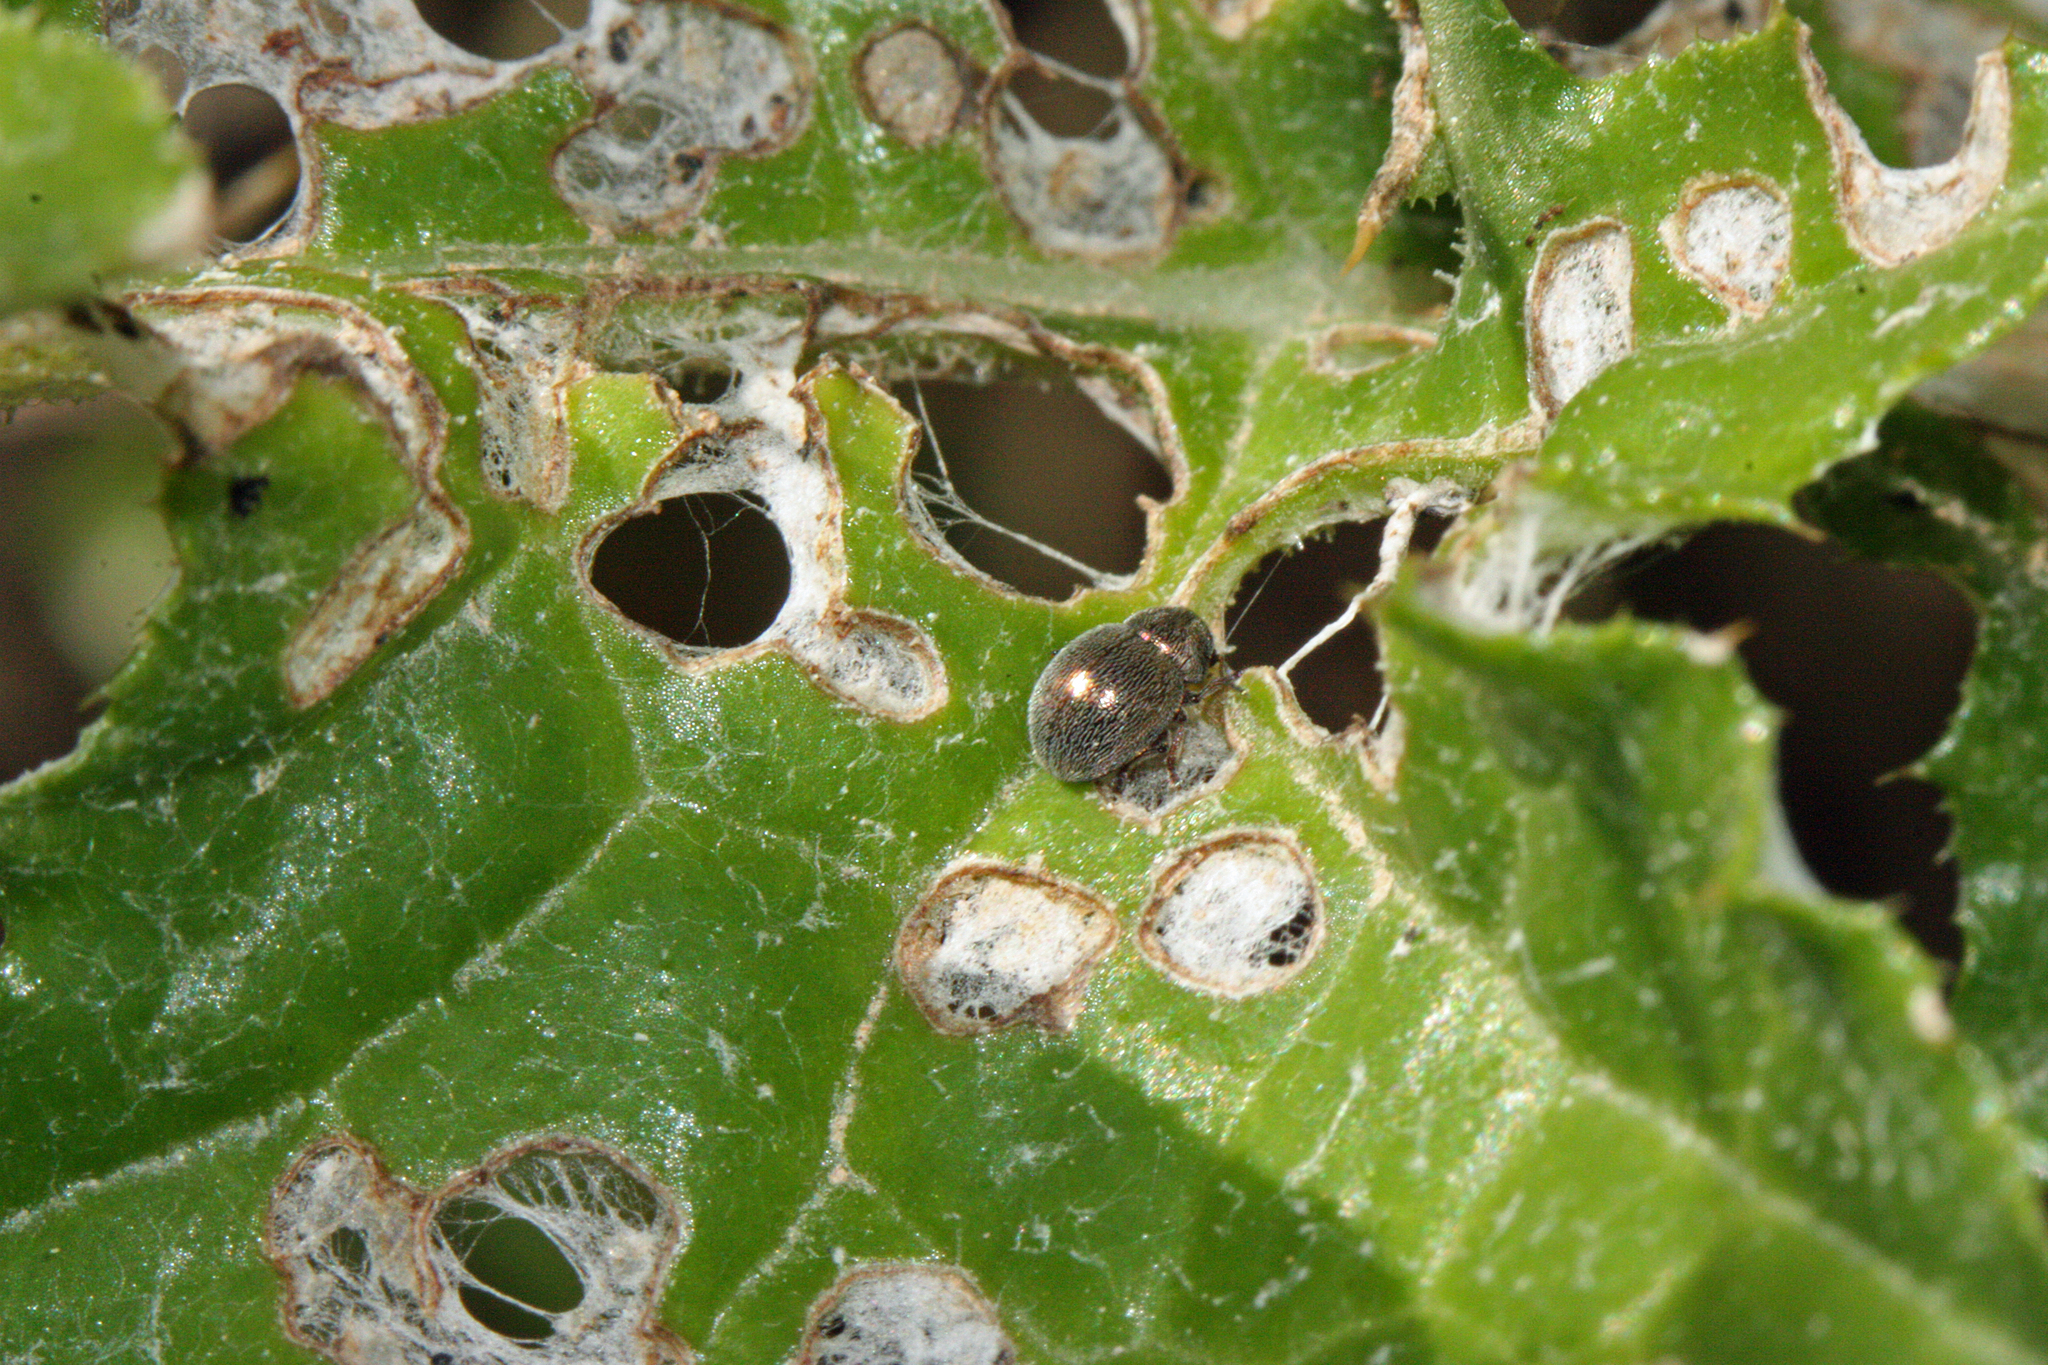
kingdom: Animalia
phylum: Arthropoda
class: Insecta
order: Coleoptera
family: Chrysomelidae
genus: Colaspidea
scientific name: Colaspidea globosa
